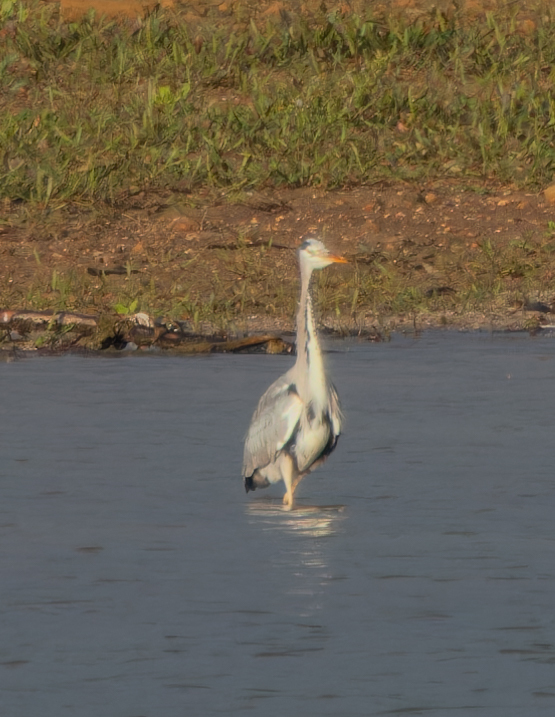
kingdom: Animalia
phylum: Chordata
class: Aves
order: Pelecaniformes
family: Ardeidae
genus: Ardea
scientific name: Ardea cinerea
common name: Grey heron
